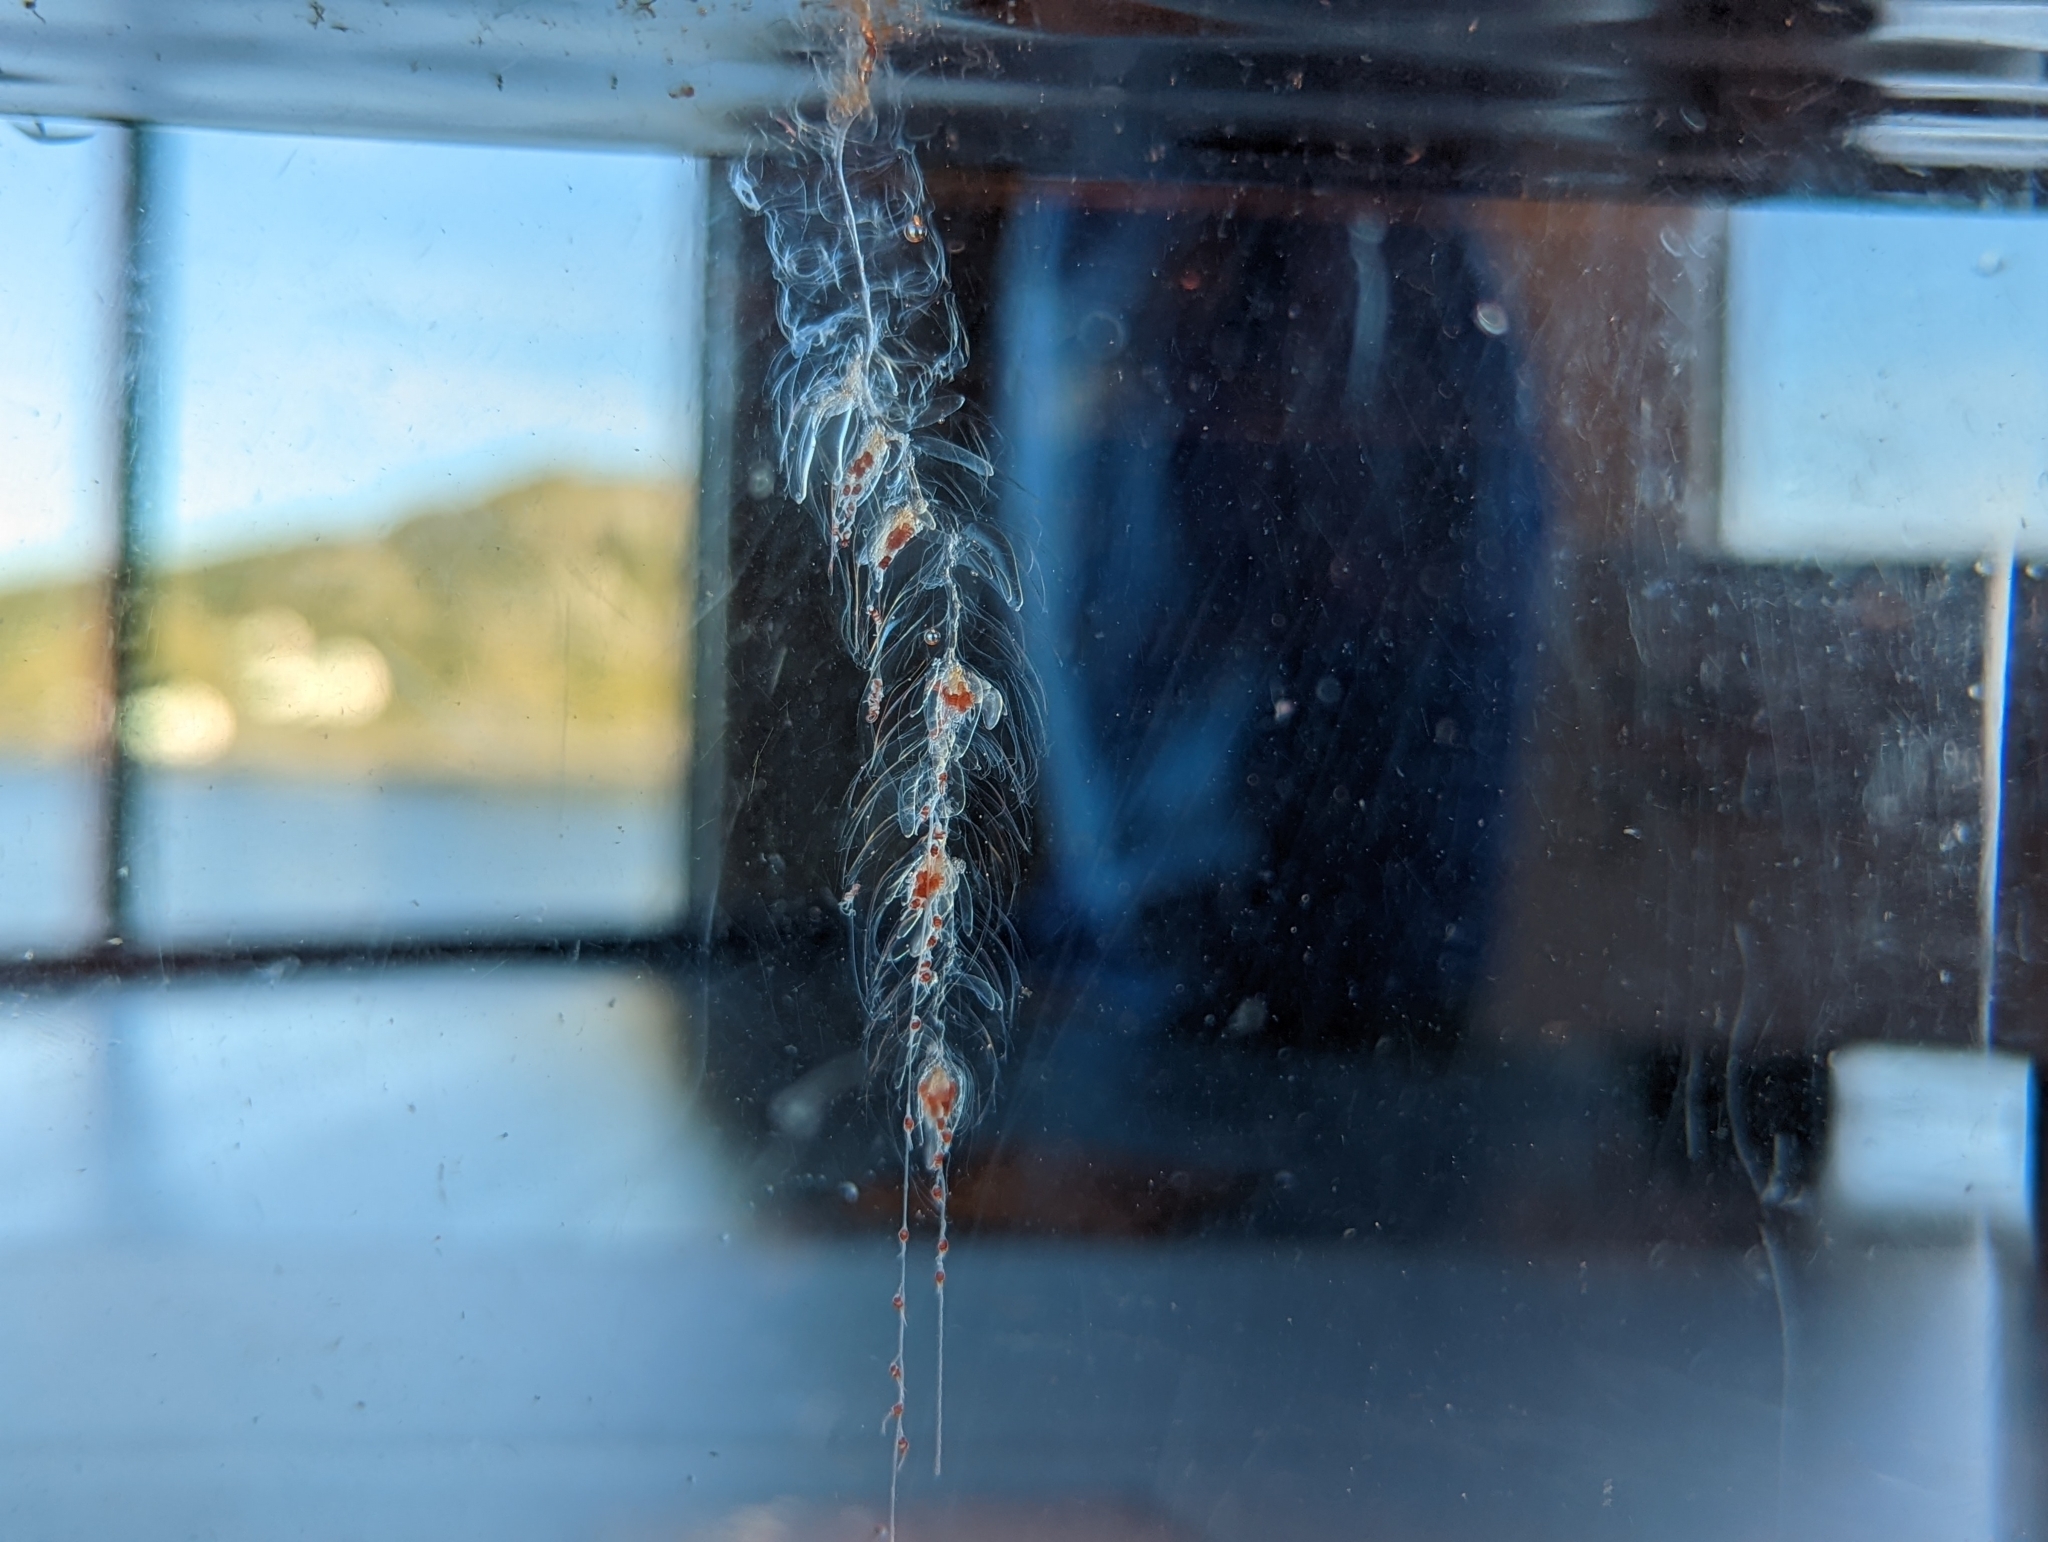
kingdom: Animalia
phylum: Cnidaria
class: Hydrozoa
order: Siphonophorae
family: Agalmatidae
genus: Nanomia
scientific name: Nanomia cara
